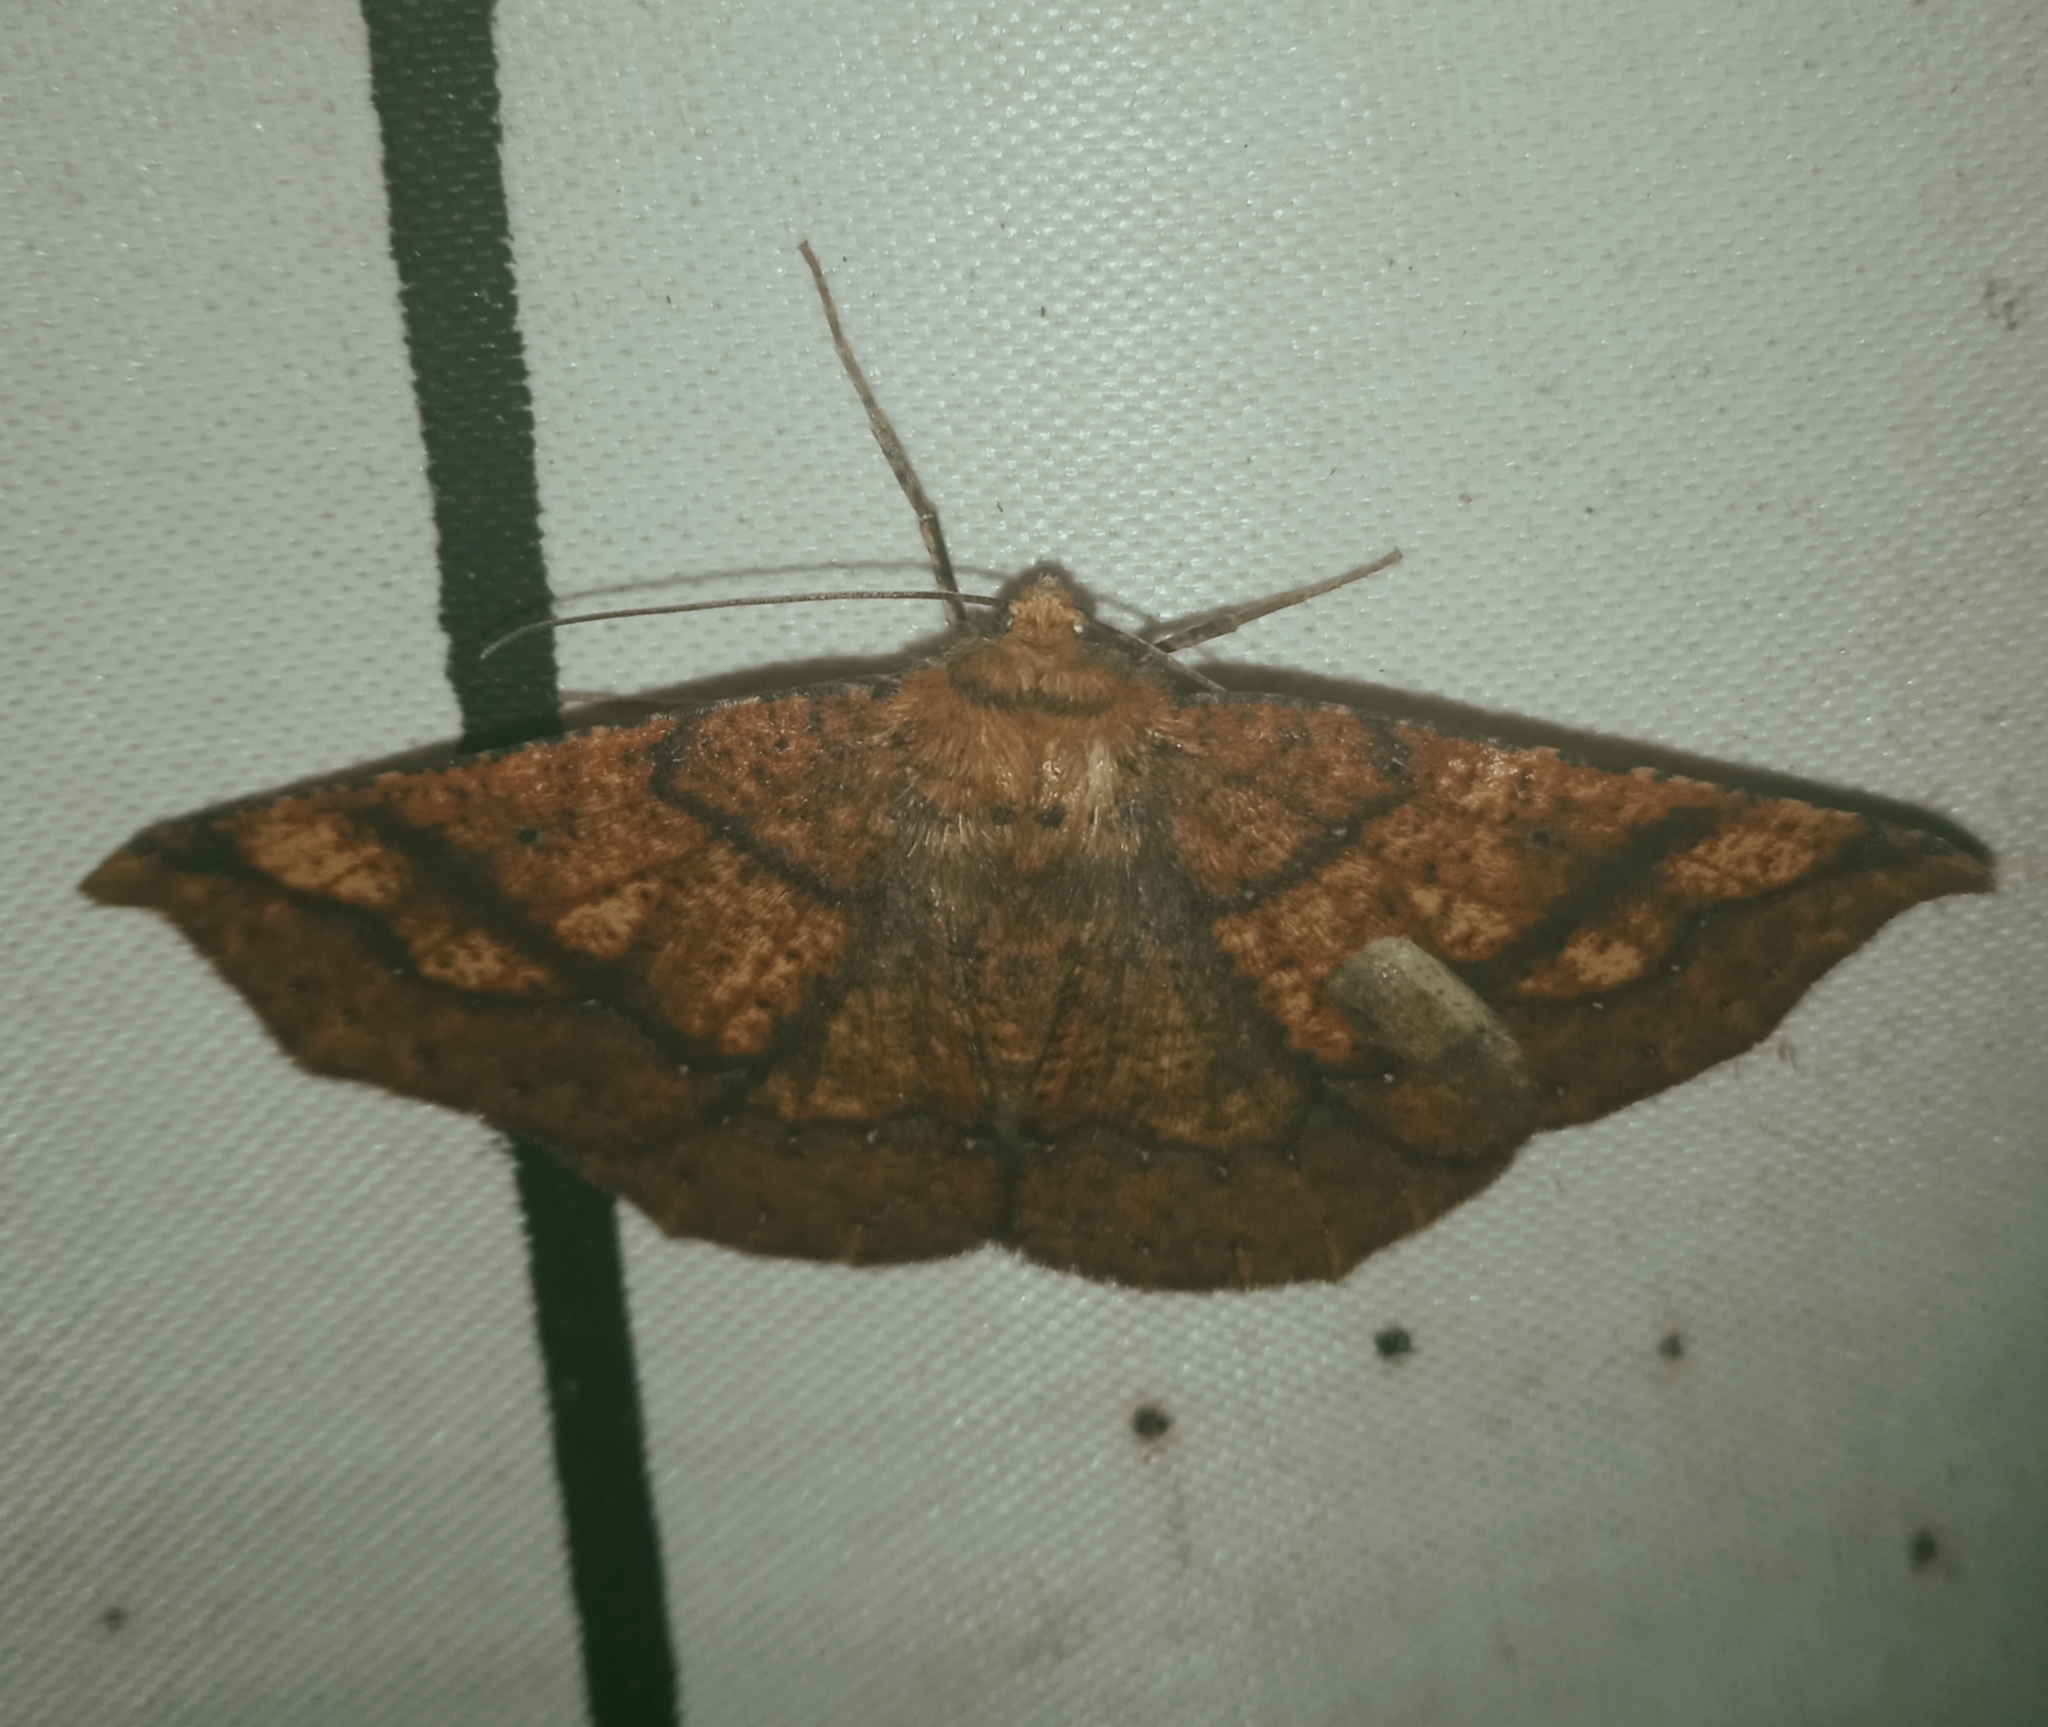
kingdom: Animalia
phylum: Arthropoda
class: Insecta
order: Lepidoptera
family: Geometridae
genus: Acrosemia
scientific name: Acrosemia undilinea
